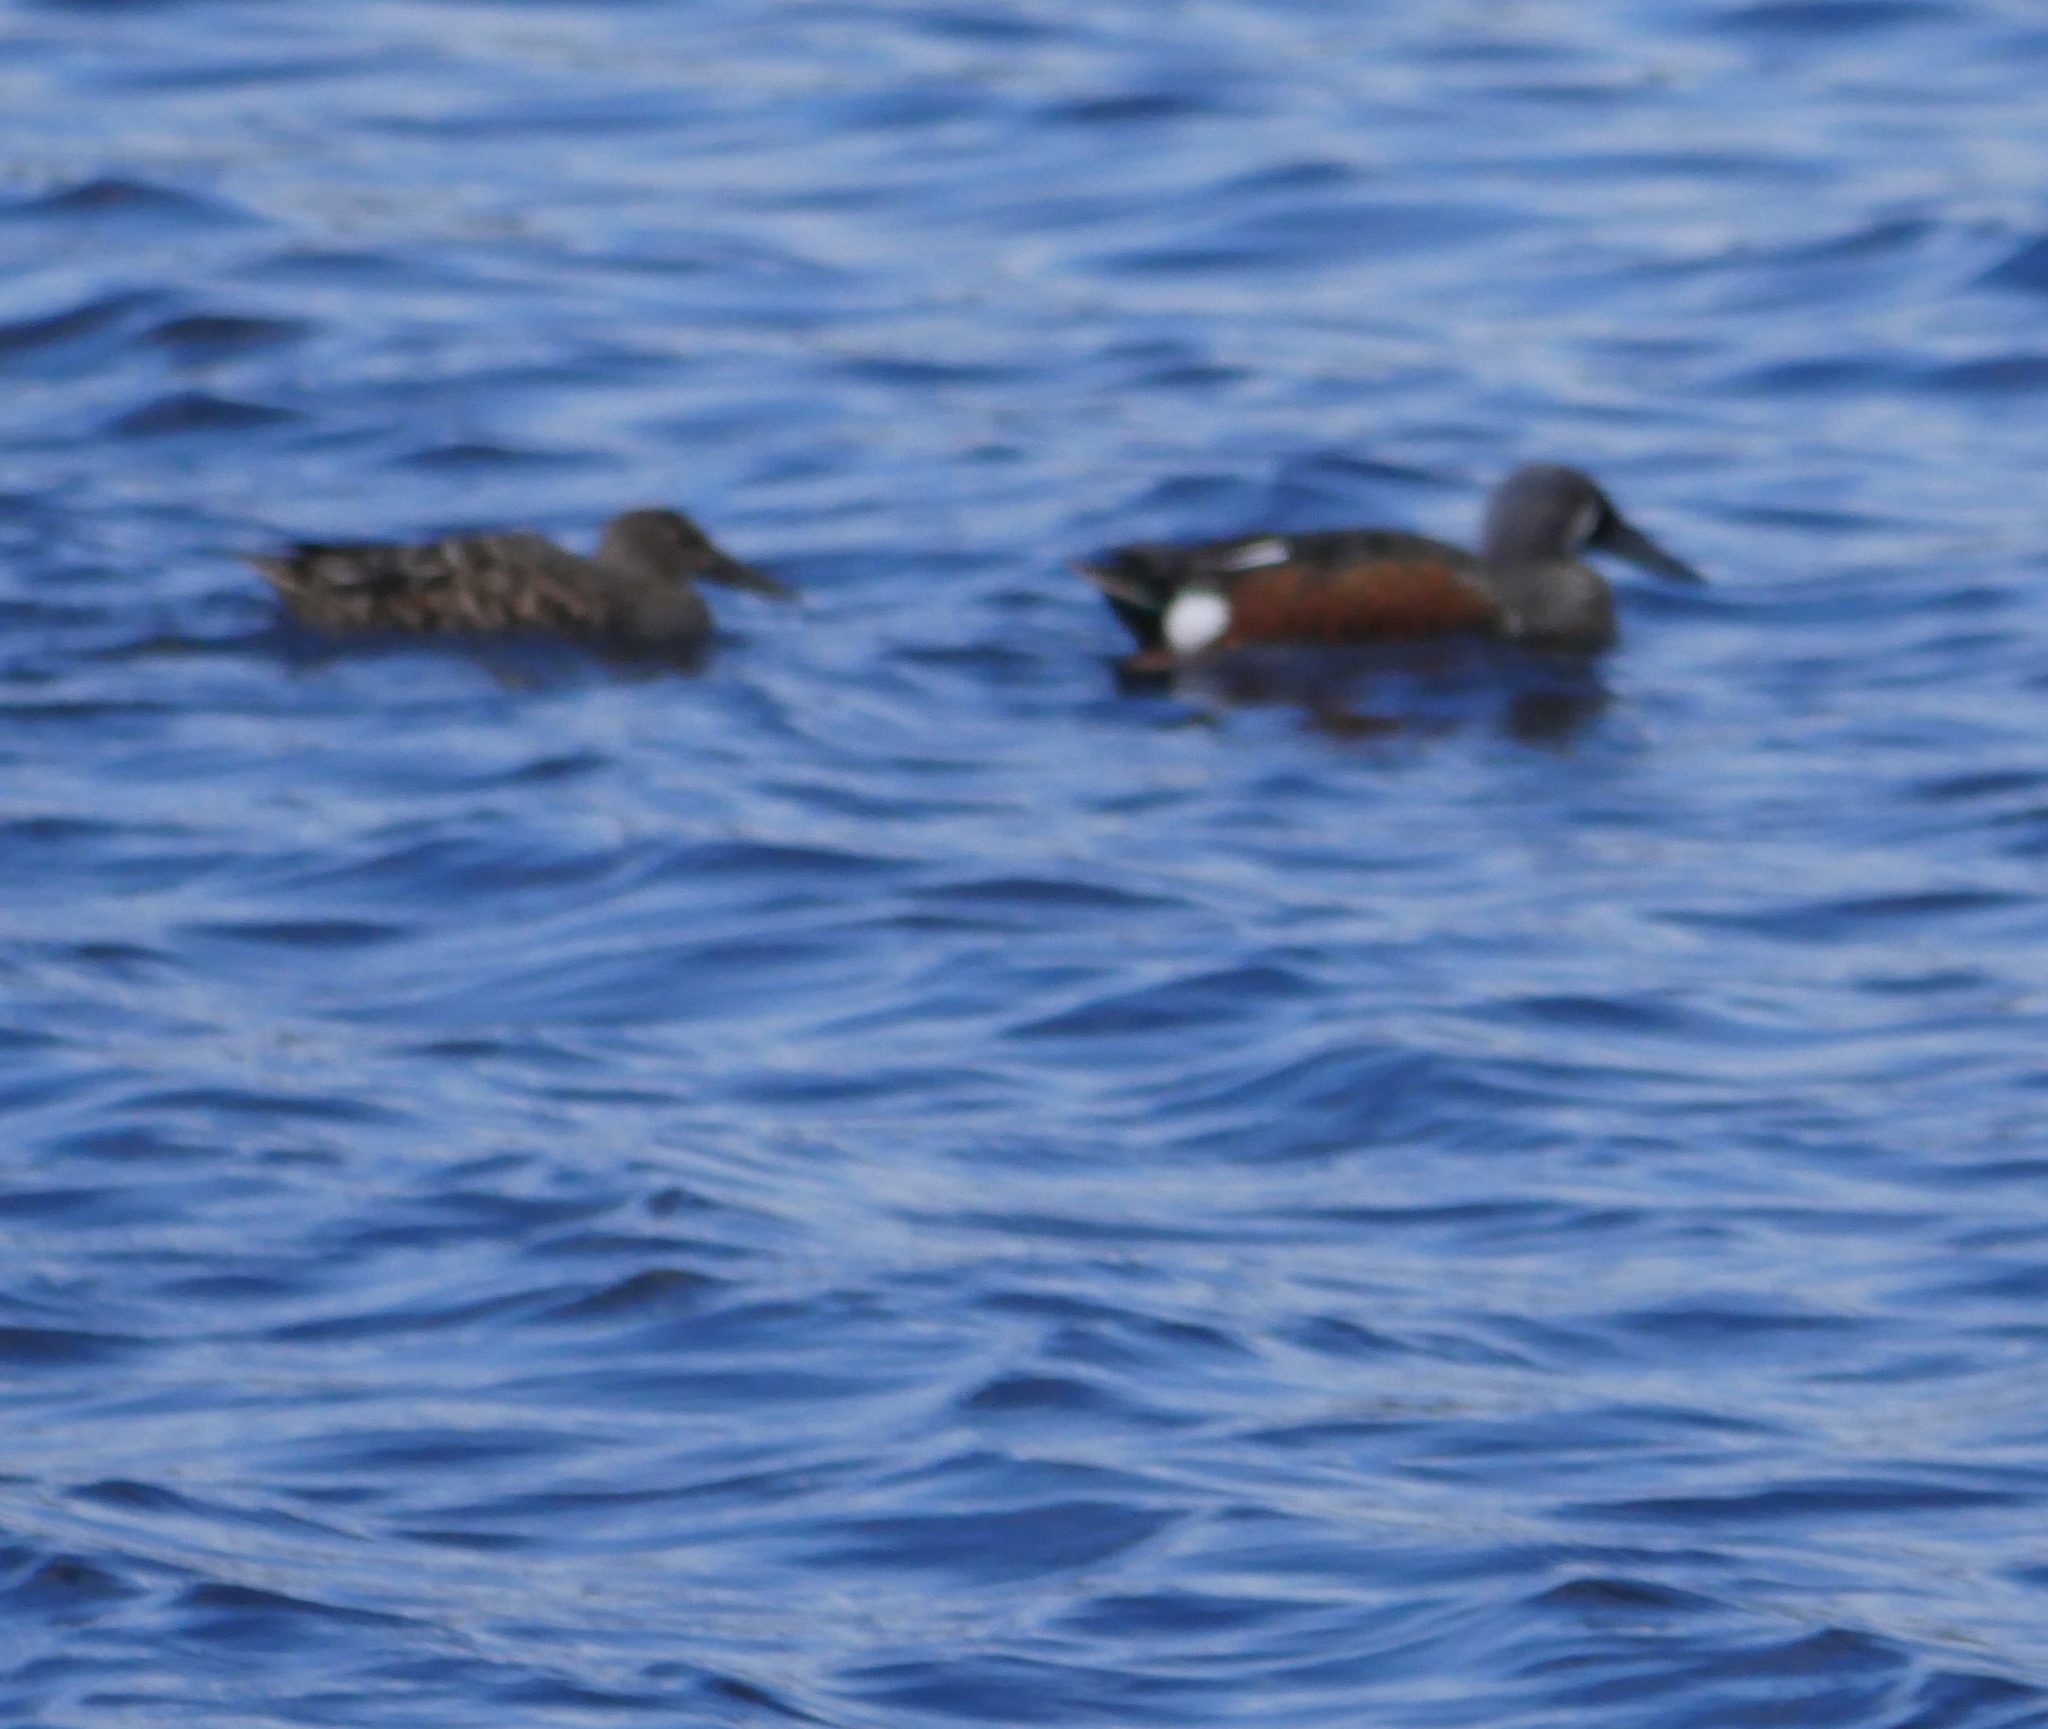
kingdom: Animalia
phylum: Chordata
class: Aves
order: Anseriformes
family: Anatidae
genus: Spatula
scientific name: Spatula rhynchotis
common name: Australian shoveler
